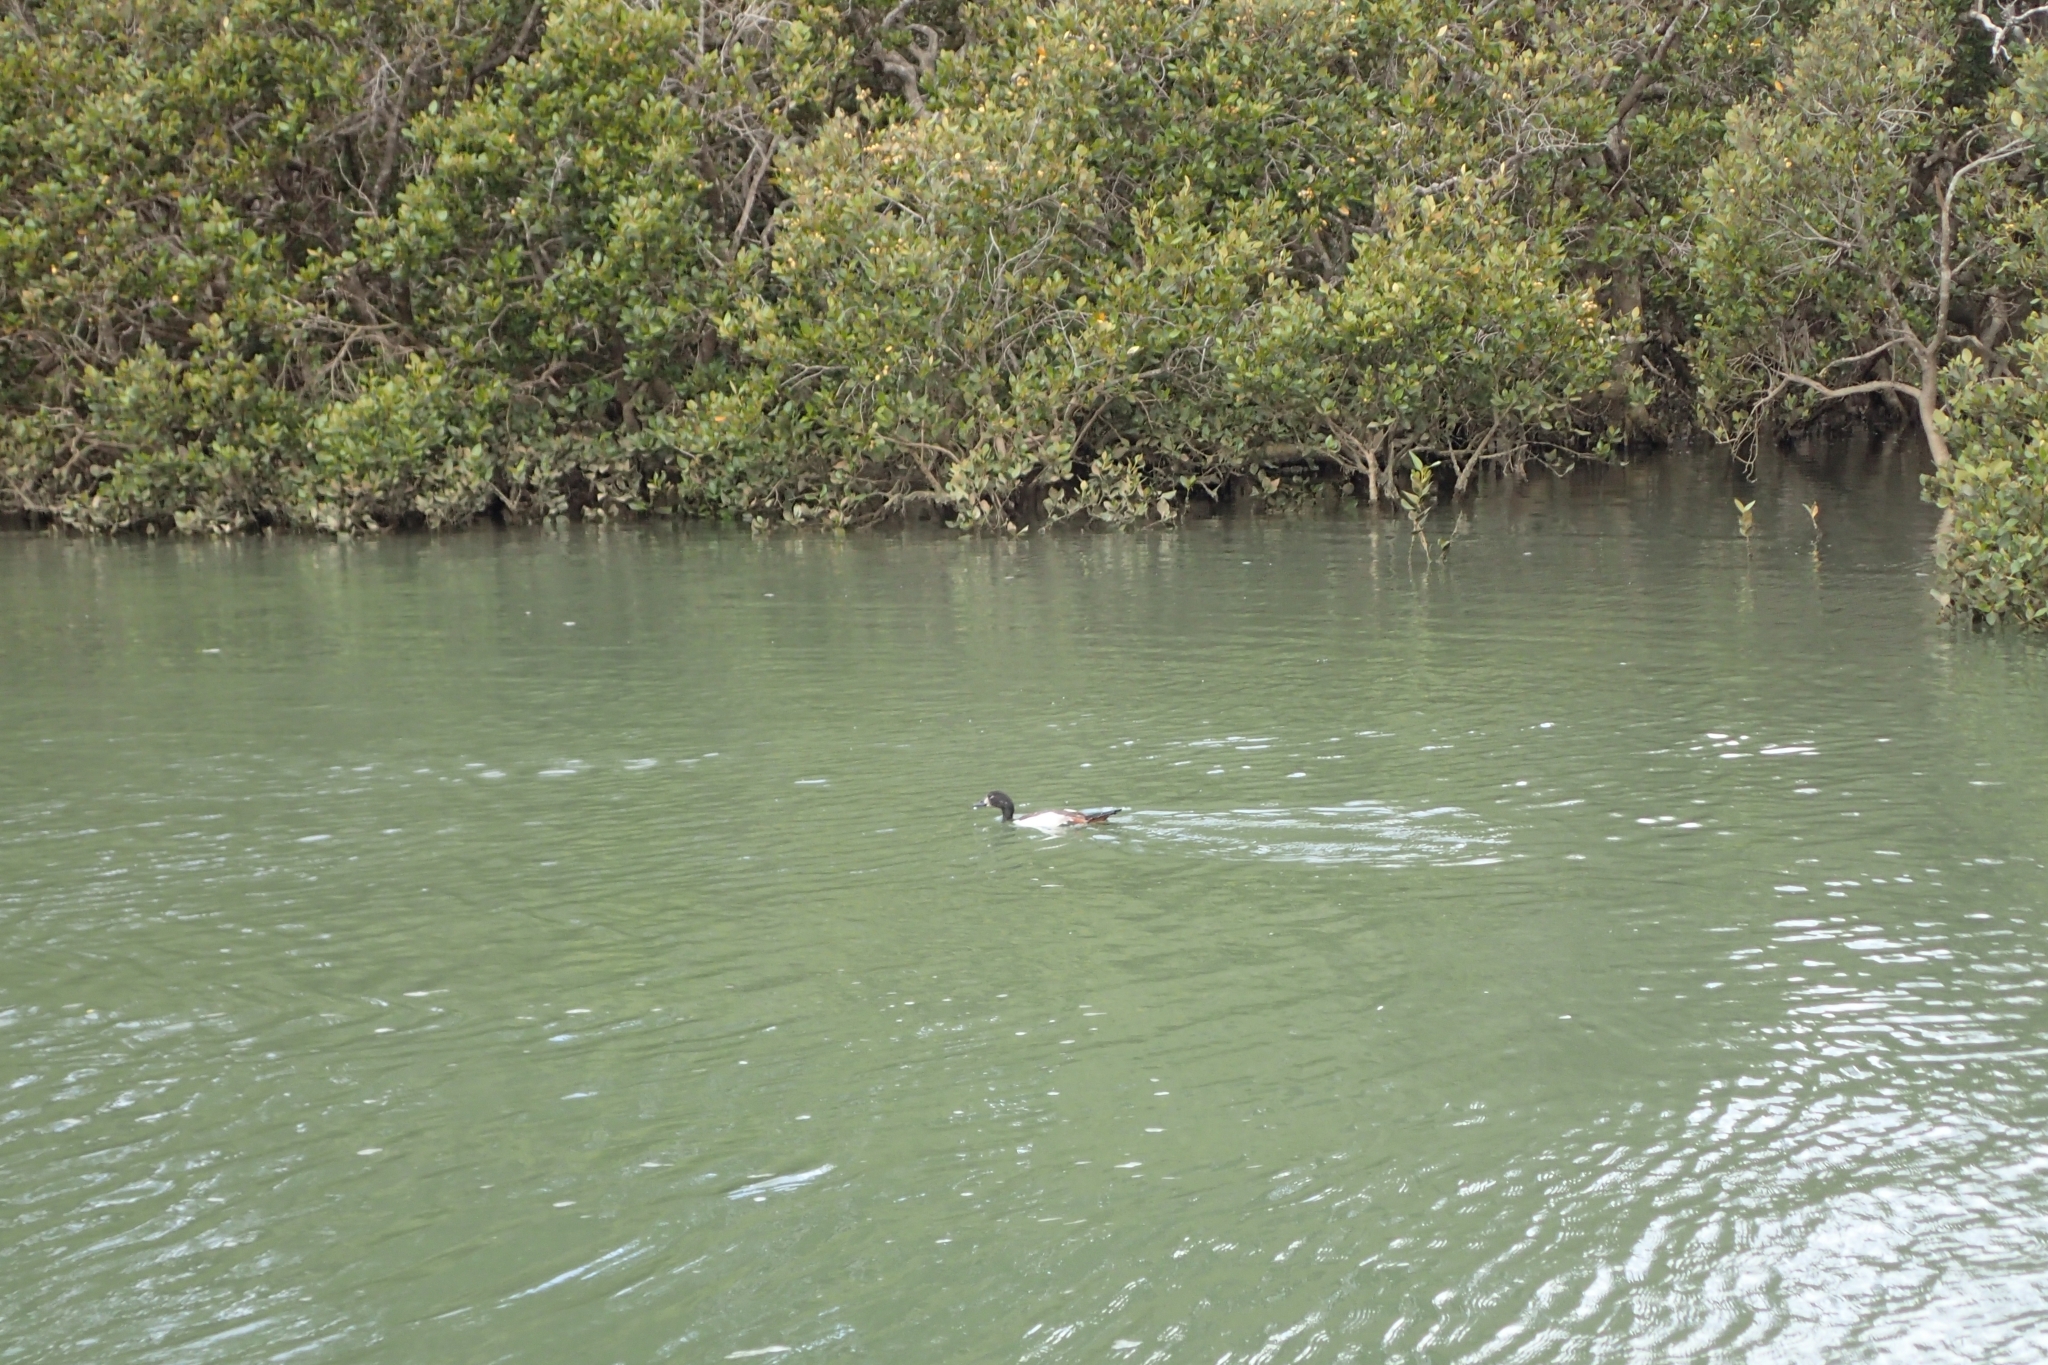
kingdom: Animalia
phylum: Chordata
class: Aves
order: Anseriformes
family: Anatidae
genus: Tadorna
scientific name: Tadorna variegata
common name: Paradise shelduck
